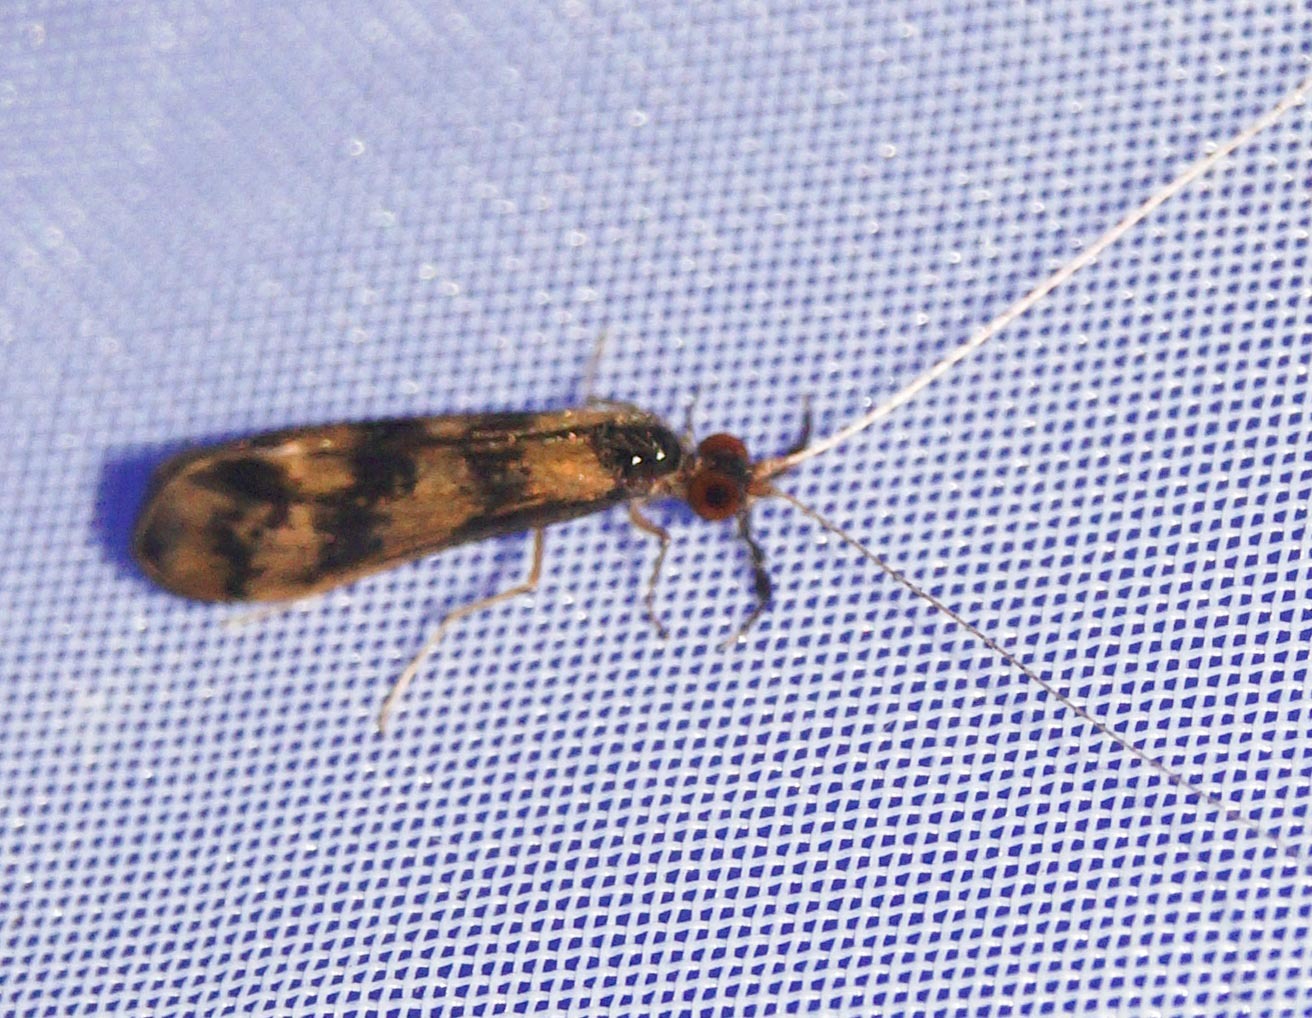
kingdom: Animalia
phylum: Arthropoda
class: Insecta
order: Trichoptera
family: Leptoceridae
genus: Mystacides
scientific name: Mystacides longicornis
